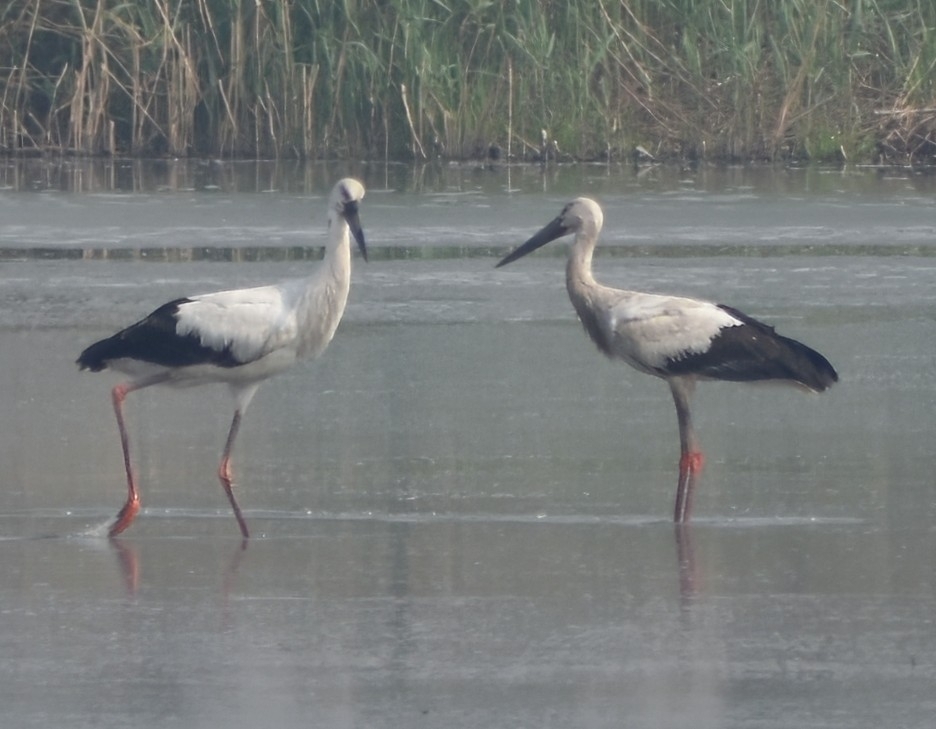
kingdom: Animalia
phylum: Chordata
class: Aves
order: Ciconiiformes
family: Ciconiidae
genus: Ciconia
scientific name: Ciconia boyciana
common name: Oriental stork
